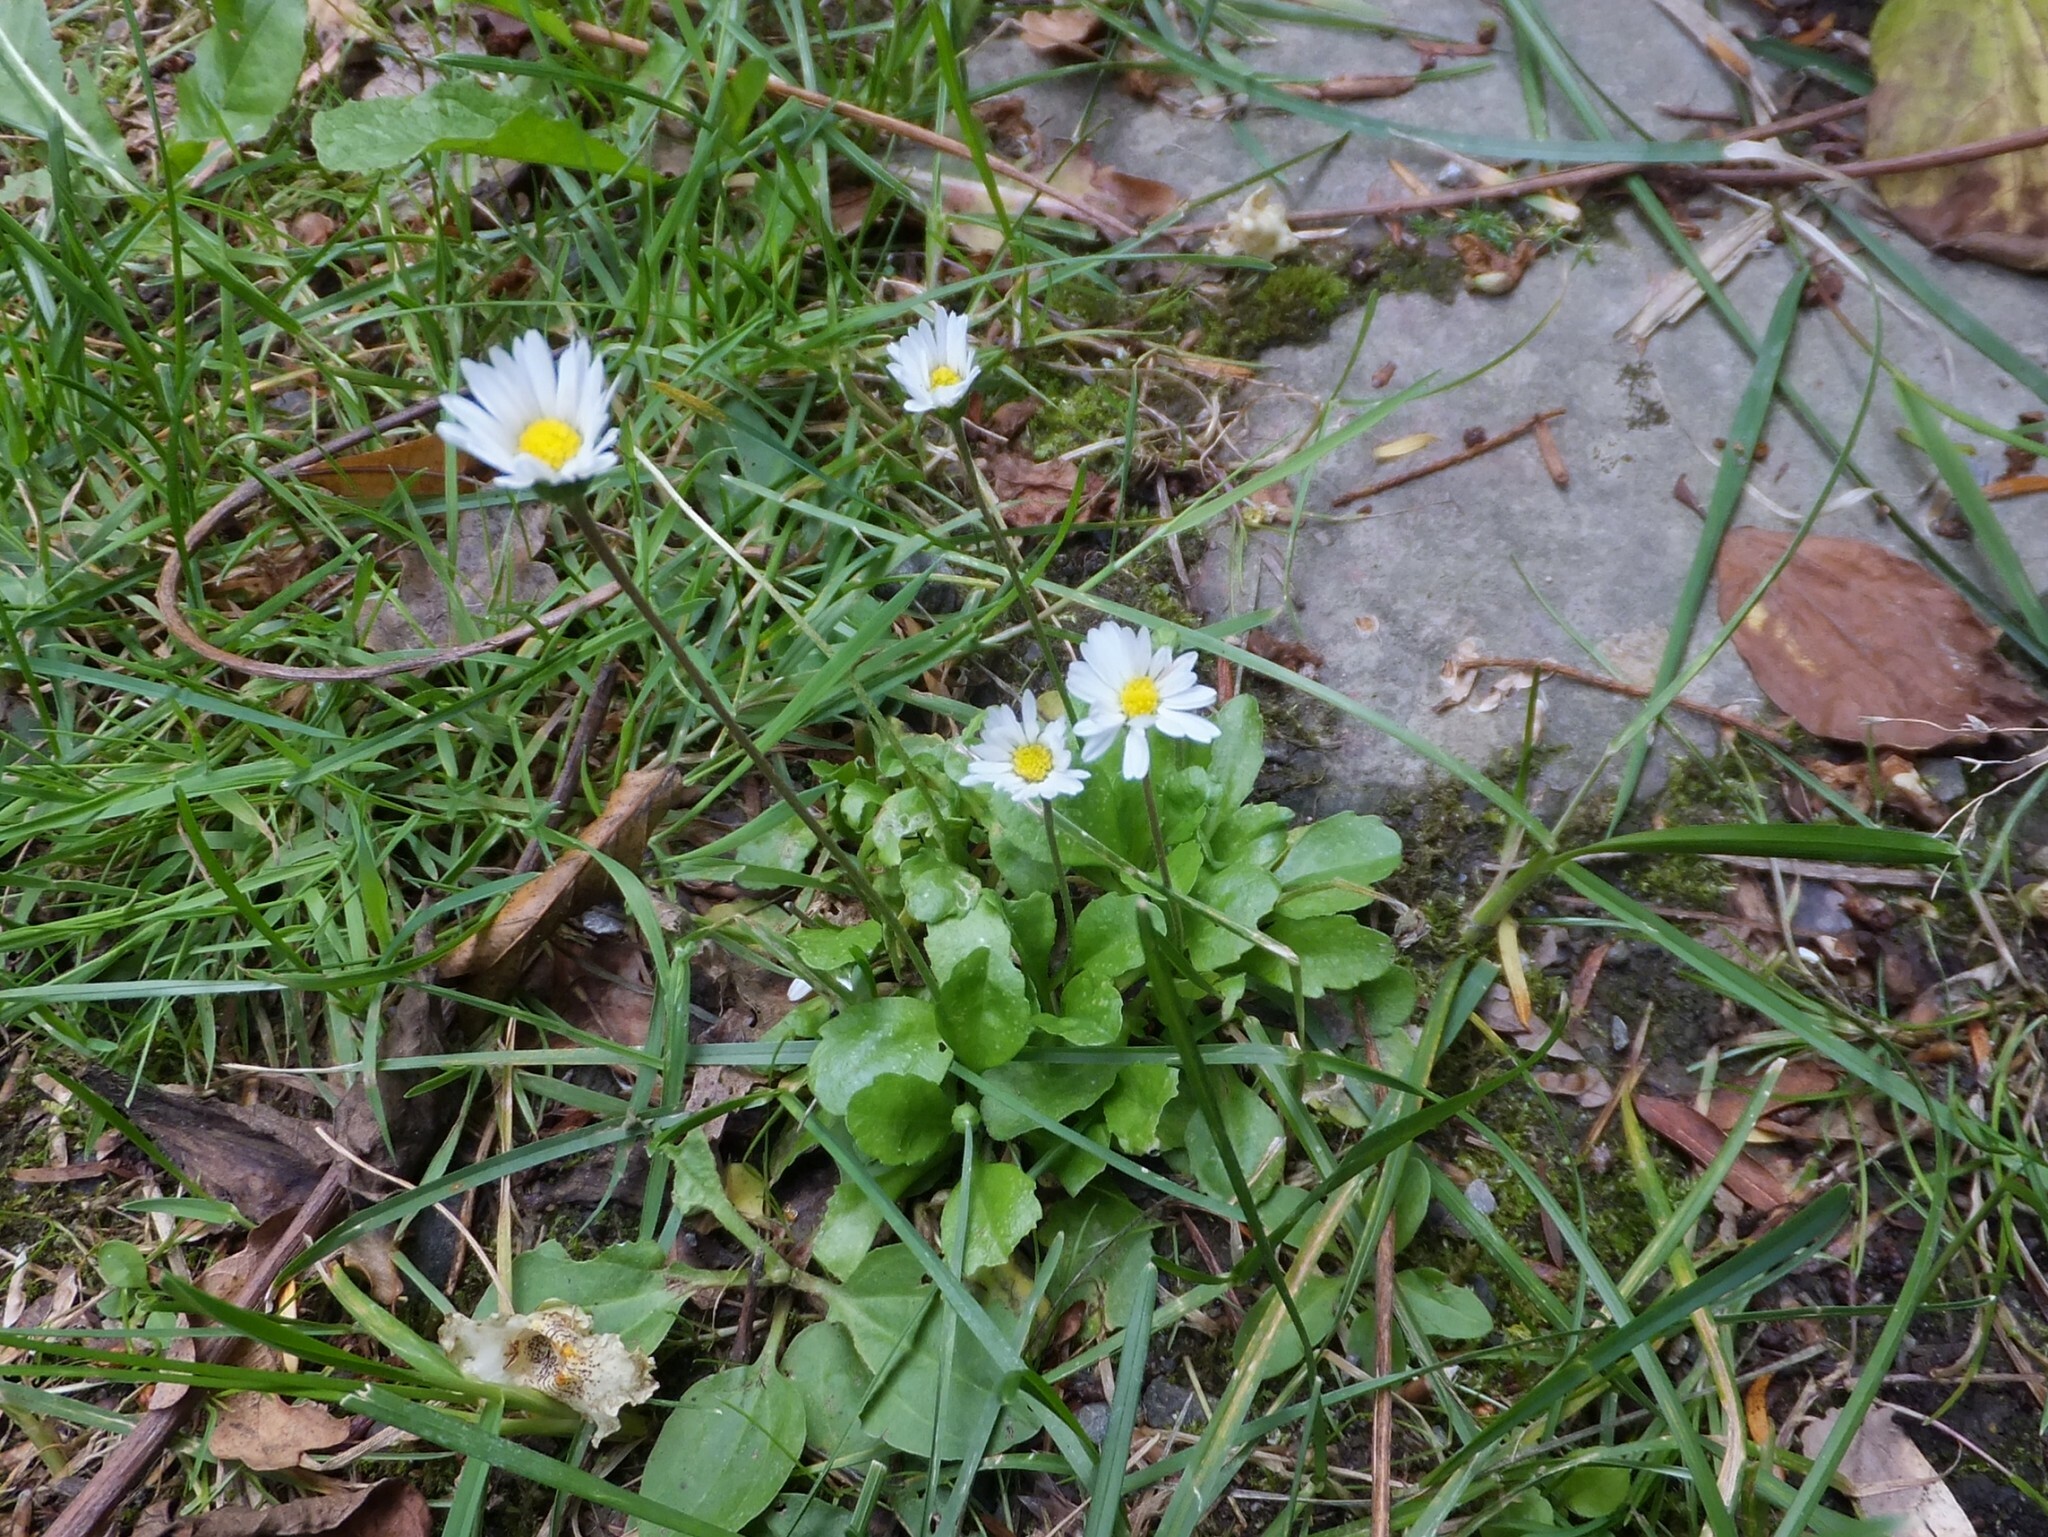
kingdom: Plantae
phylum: Tracheophyta
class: Magnoliopsida
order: Asterales
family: Asteraceae
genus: Bellis
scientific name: Bellis perennis
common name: Lawndaisy
